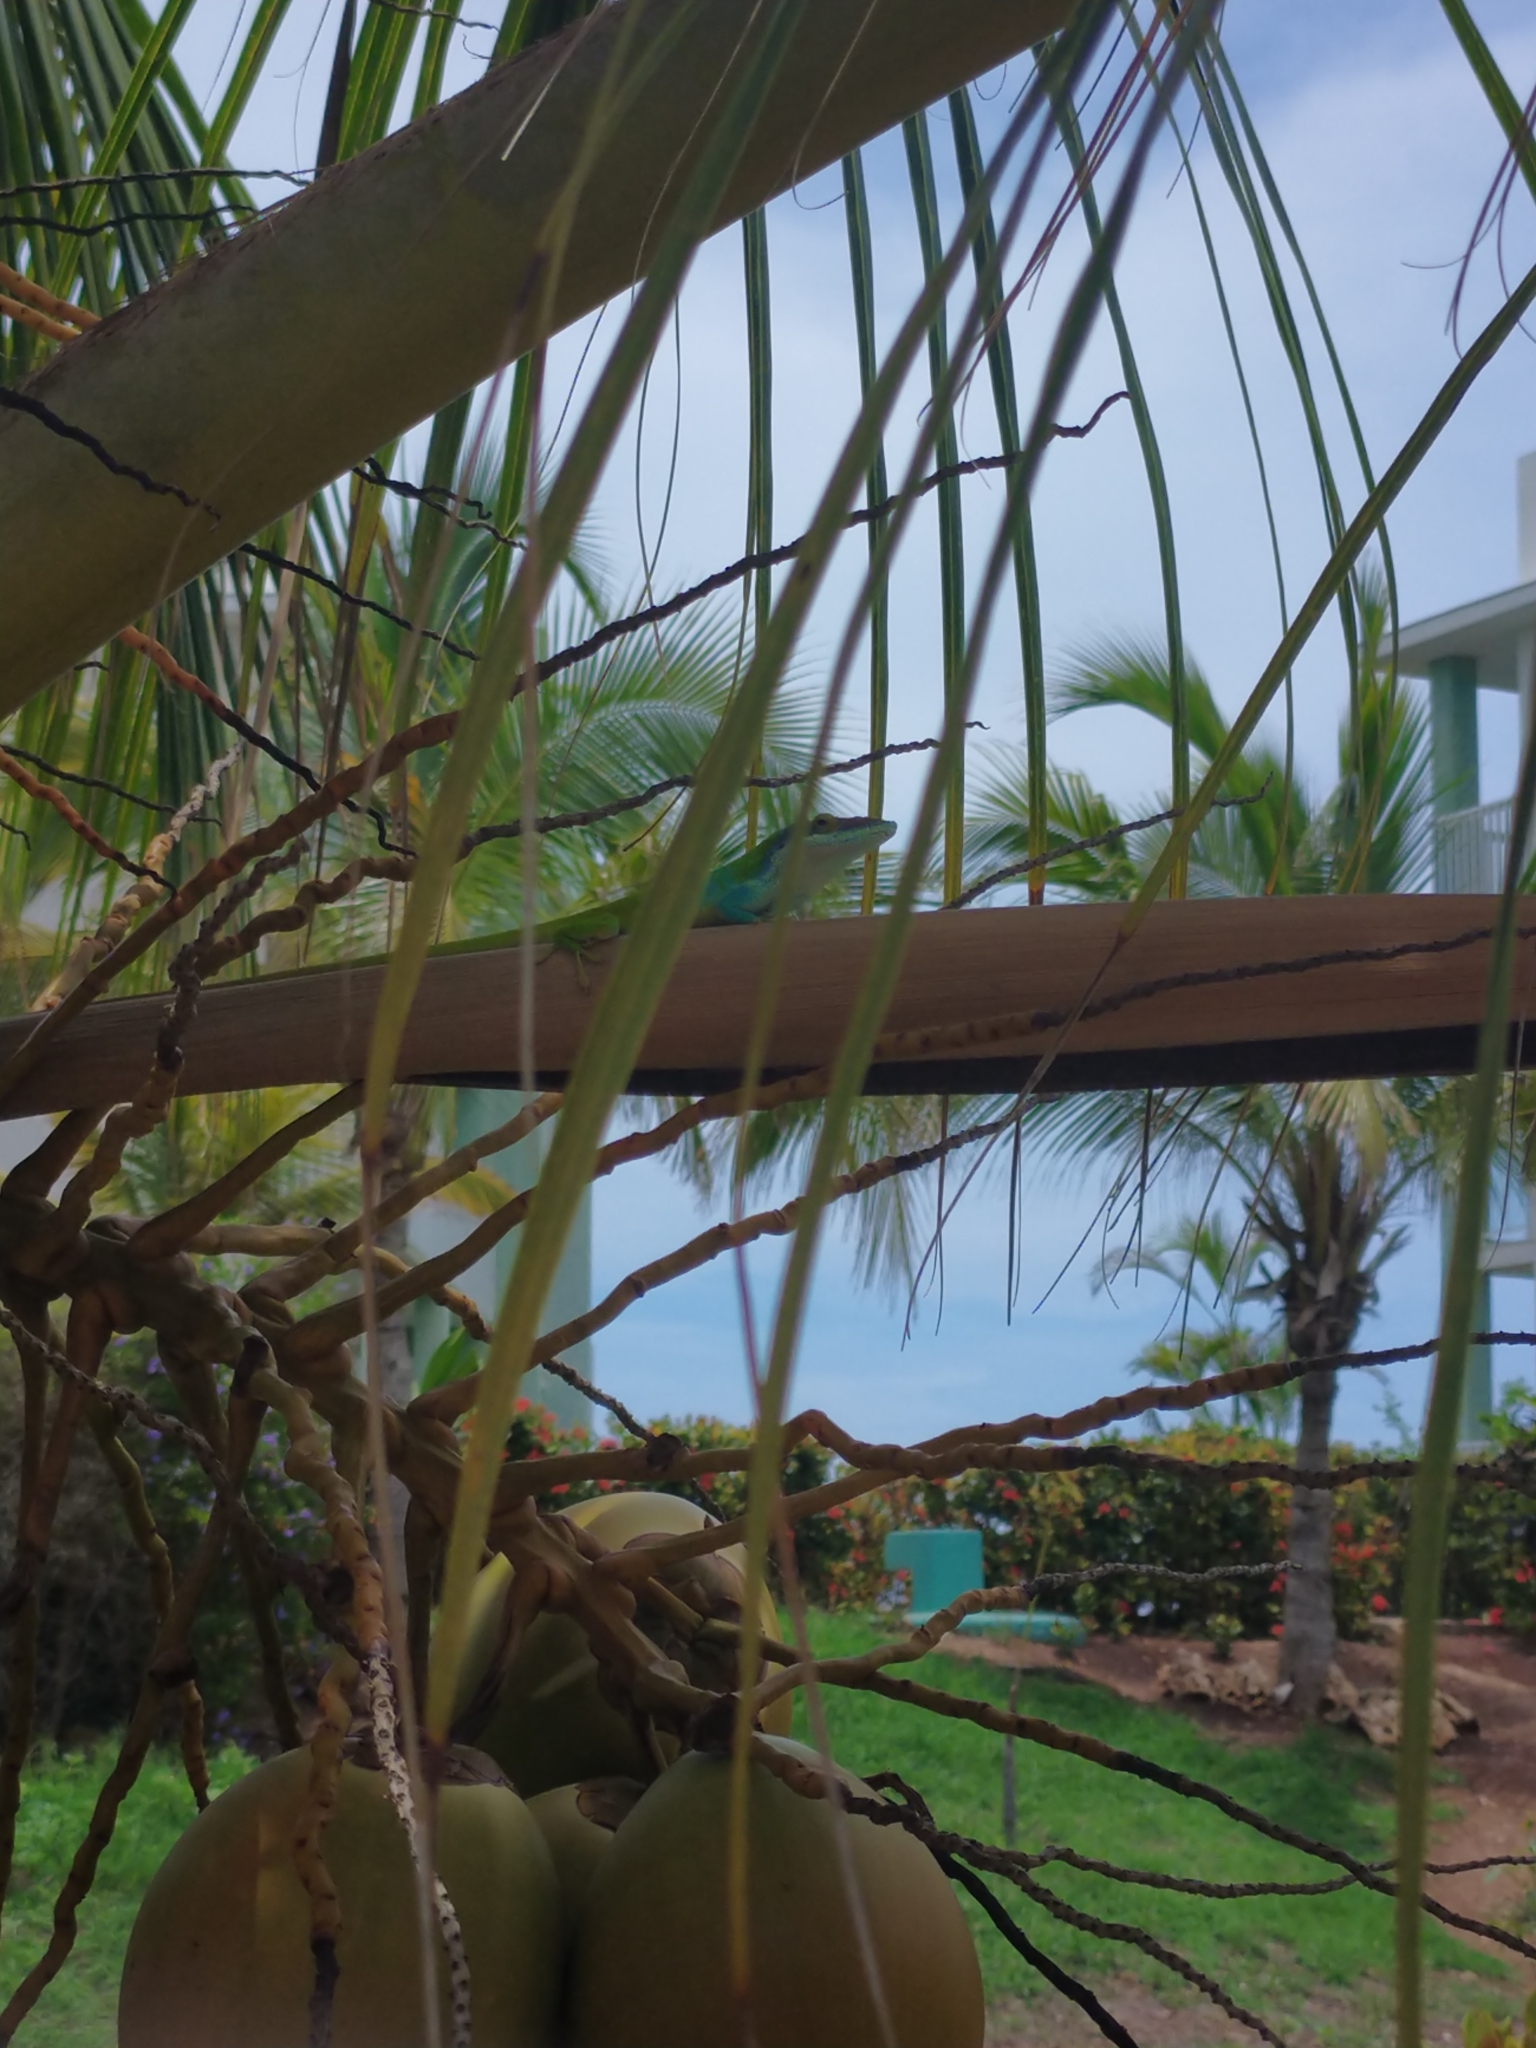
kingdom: Animalia
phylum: Chordata
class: Squamata
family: Dactyloidae
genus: Anolis
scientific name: Anolis allisoni
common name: Allison's anole
